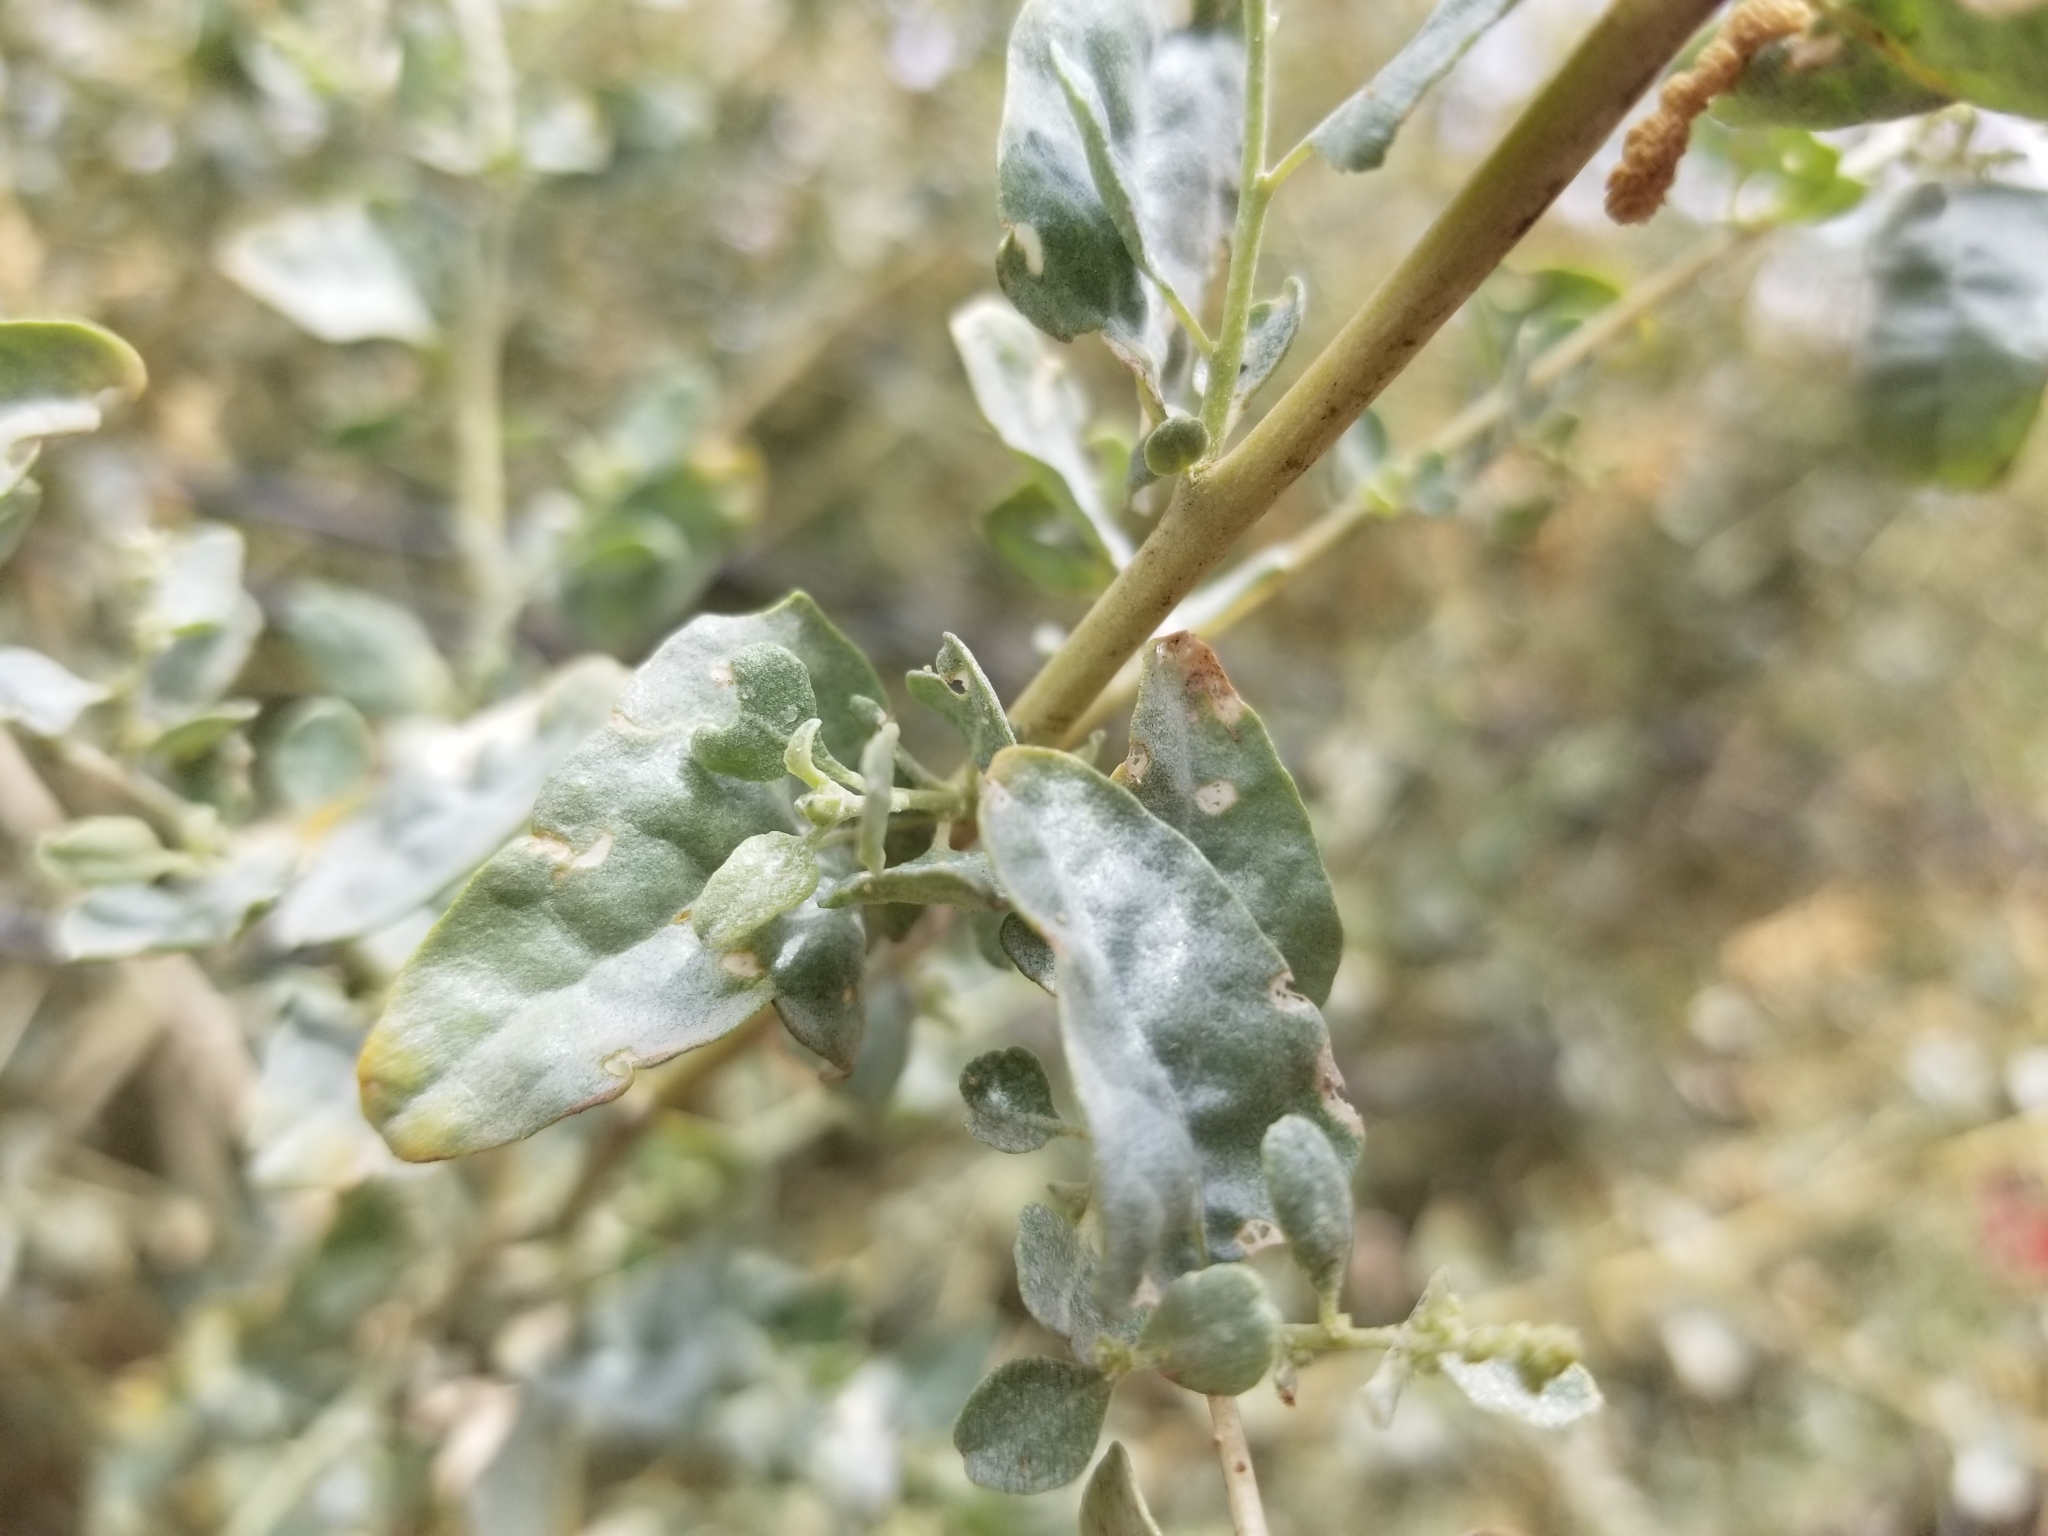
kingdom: Plantae
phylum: Tracheophyta
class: Magnoliopsida
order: Caryophyllales
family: Amaranthaceae
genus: Atriplex
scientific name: Atriplex lentiformis
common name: Big saltbush
